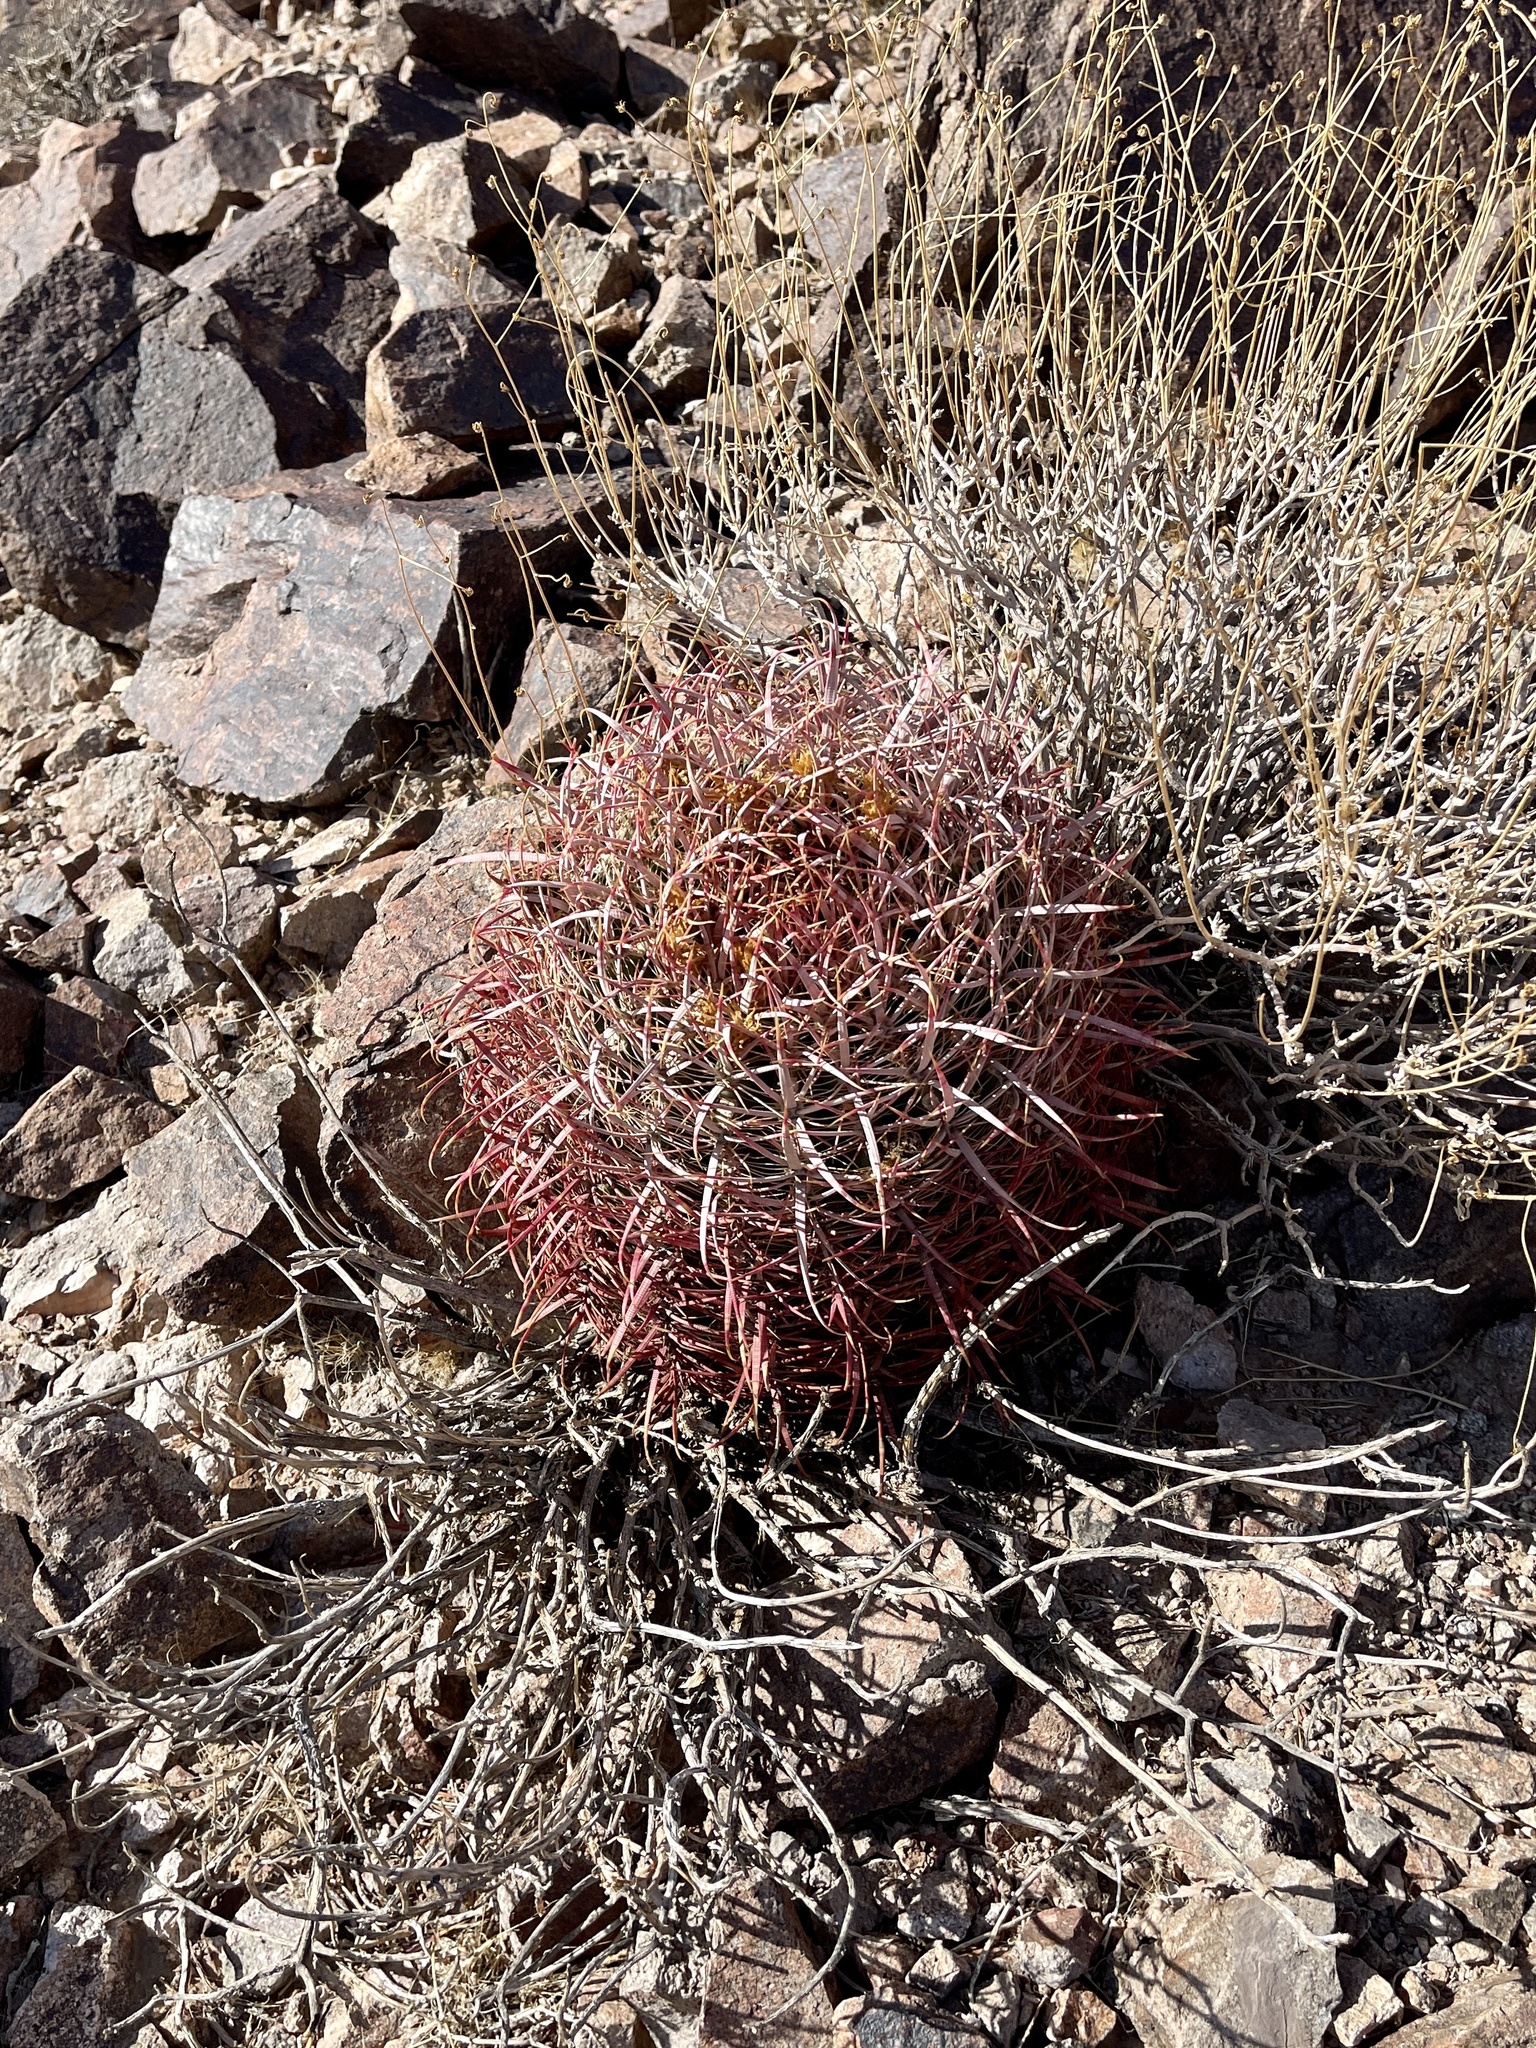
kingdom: Plantae
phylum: Tracheophyta
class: Magnoliopsida
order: Caryophyllales
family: Cactaceae
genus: Ferocactus
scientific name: Ferocactus cylindraceus
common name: California barrel cactus
